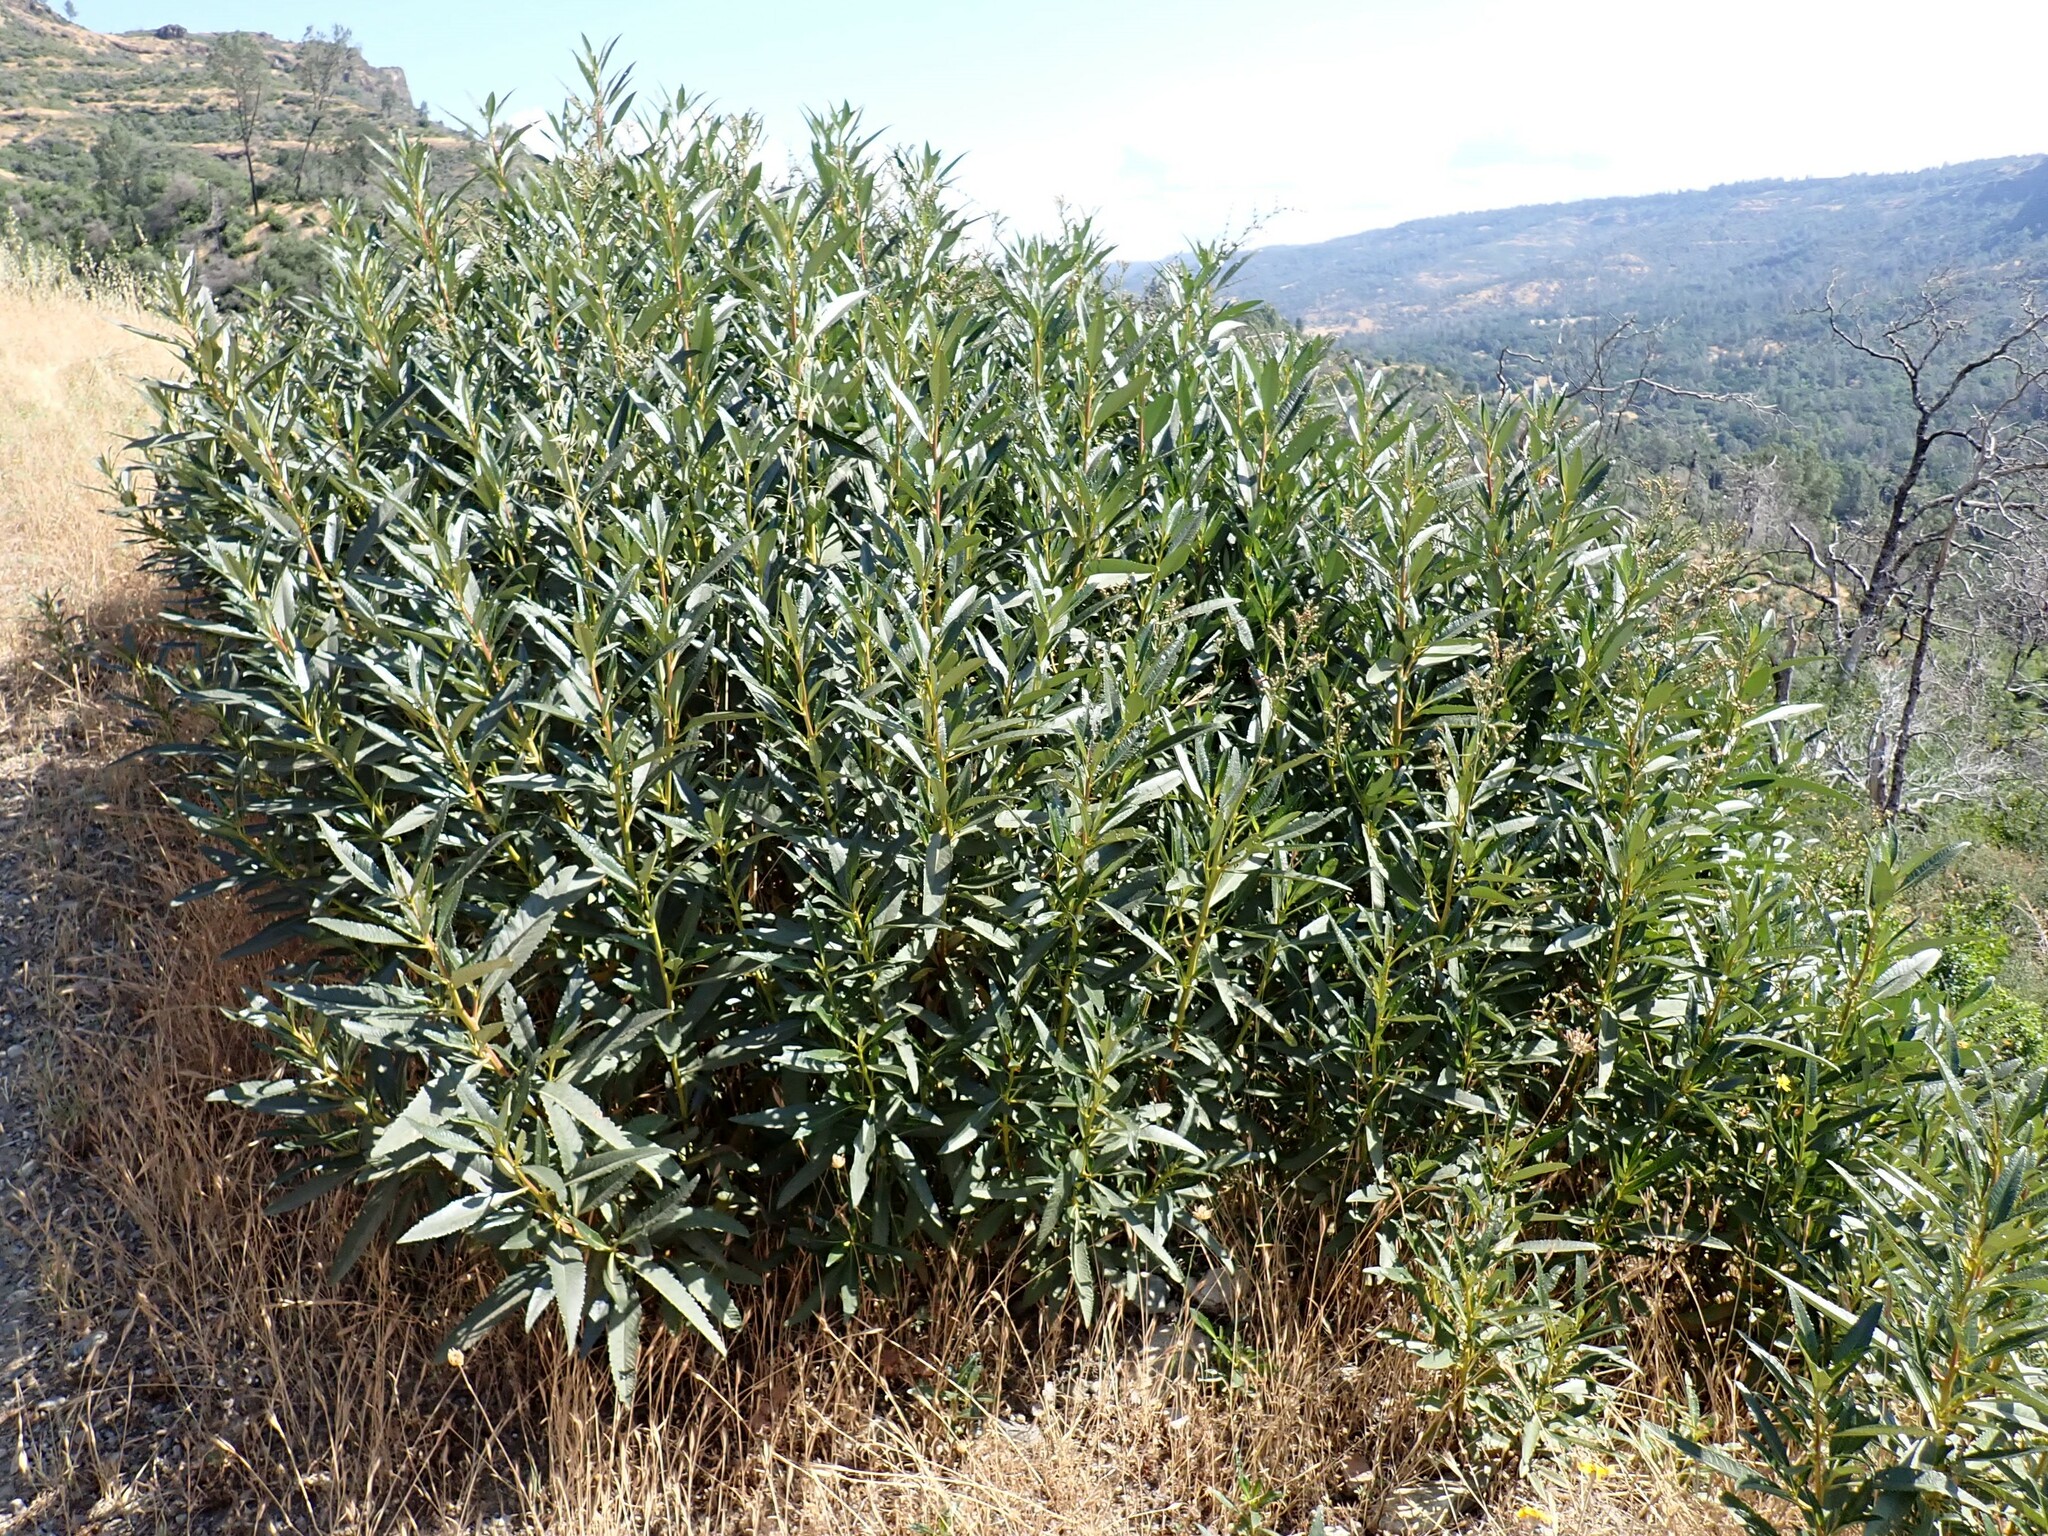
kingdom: Plantae
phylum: Tracheophyta
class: Magnoliopsida
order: Boraginales
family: Namaceae
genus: Eriodictyon
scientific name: Eriodictyon californicum
